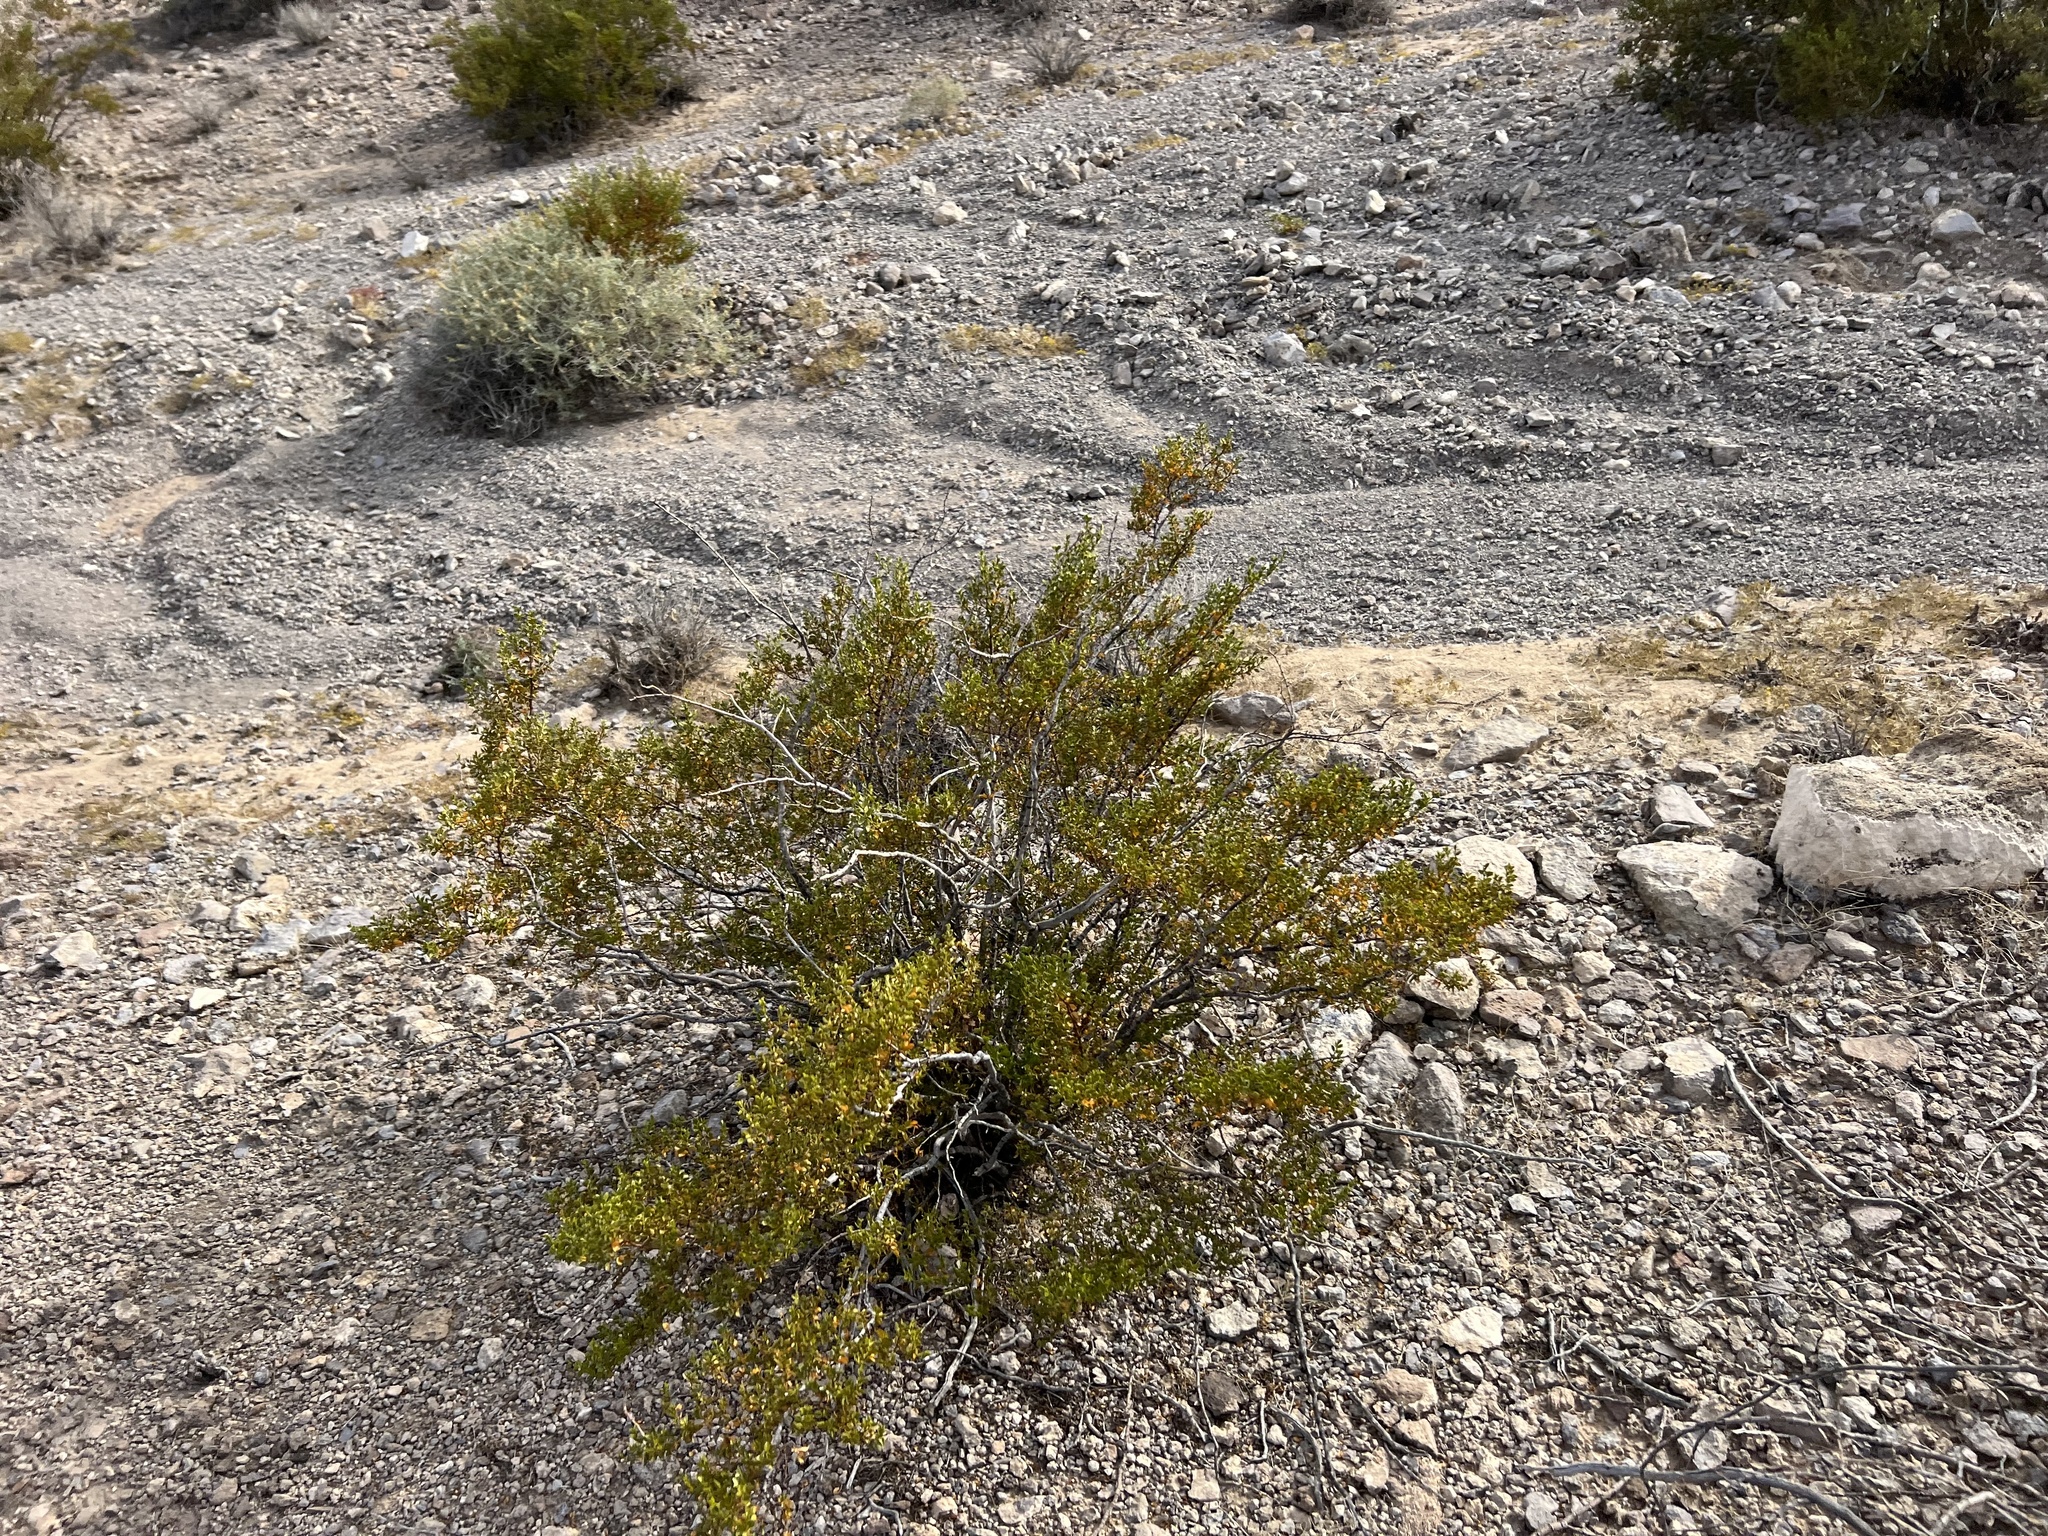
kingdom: Plantae
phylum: Tracheophyta
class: Magnoliopsida
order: Zygophyllales
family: Zygophyllaceae
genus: Larrea
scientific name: Larrea tridentata
